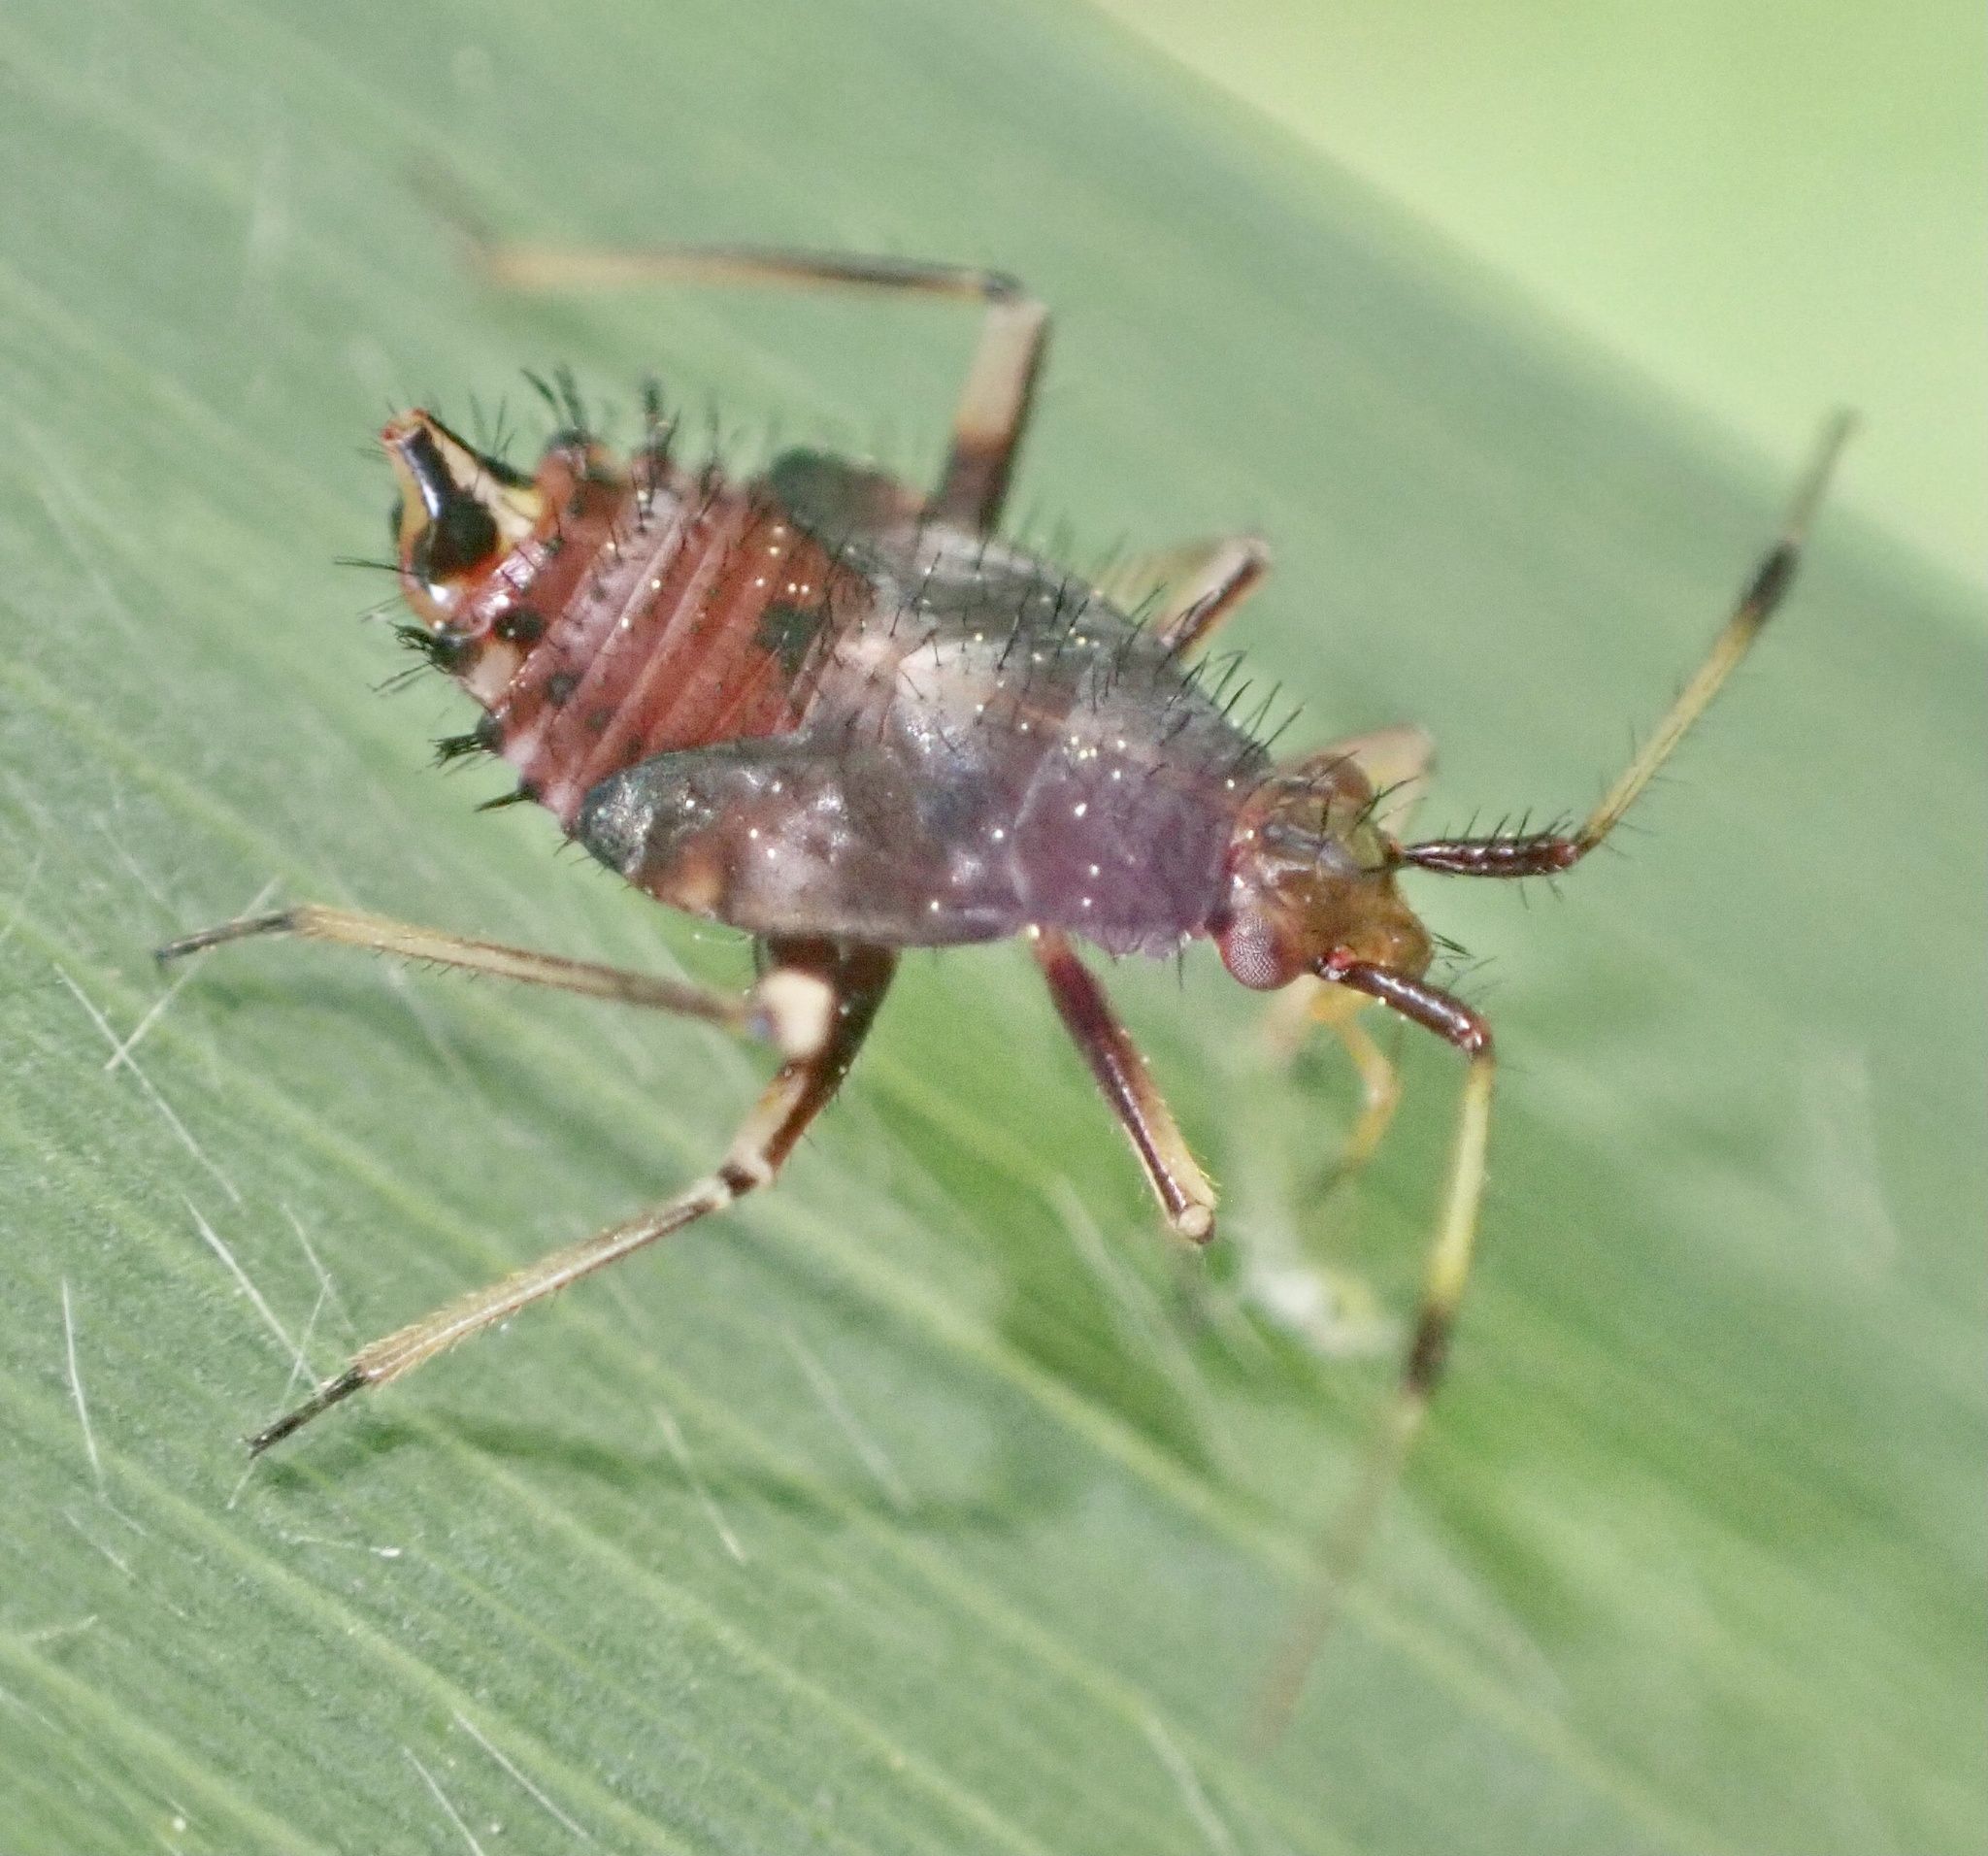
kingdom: Animalia
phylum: Arthropoda
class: Insecta
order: Hemiptera
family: Miridae
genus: Deraeocoris
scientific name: Deraeocoris ruber
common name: Plant bug
